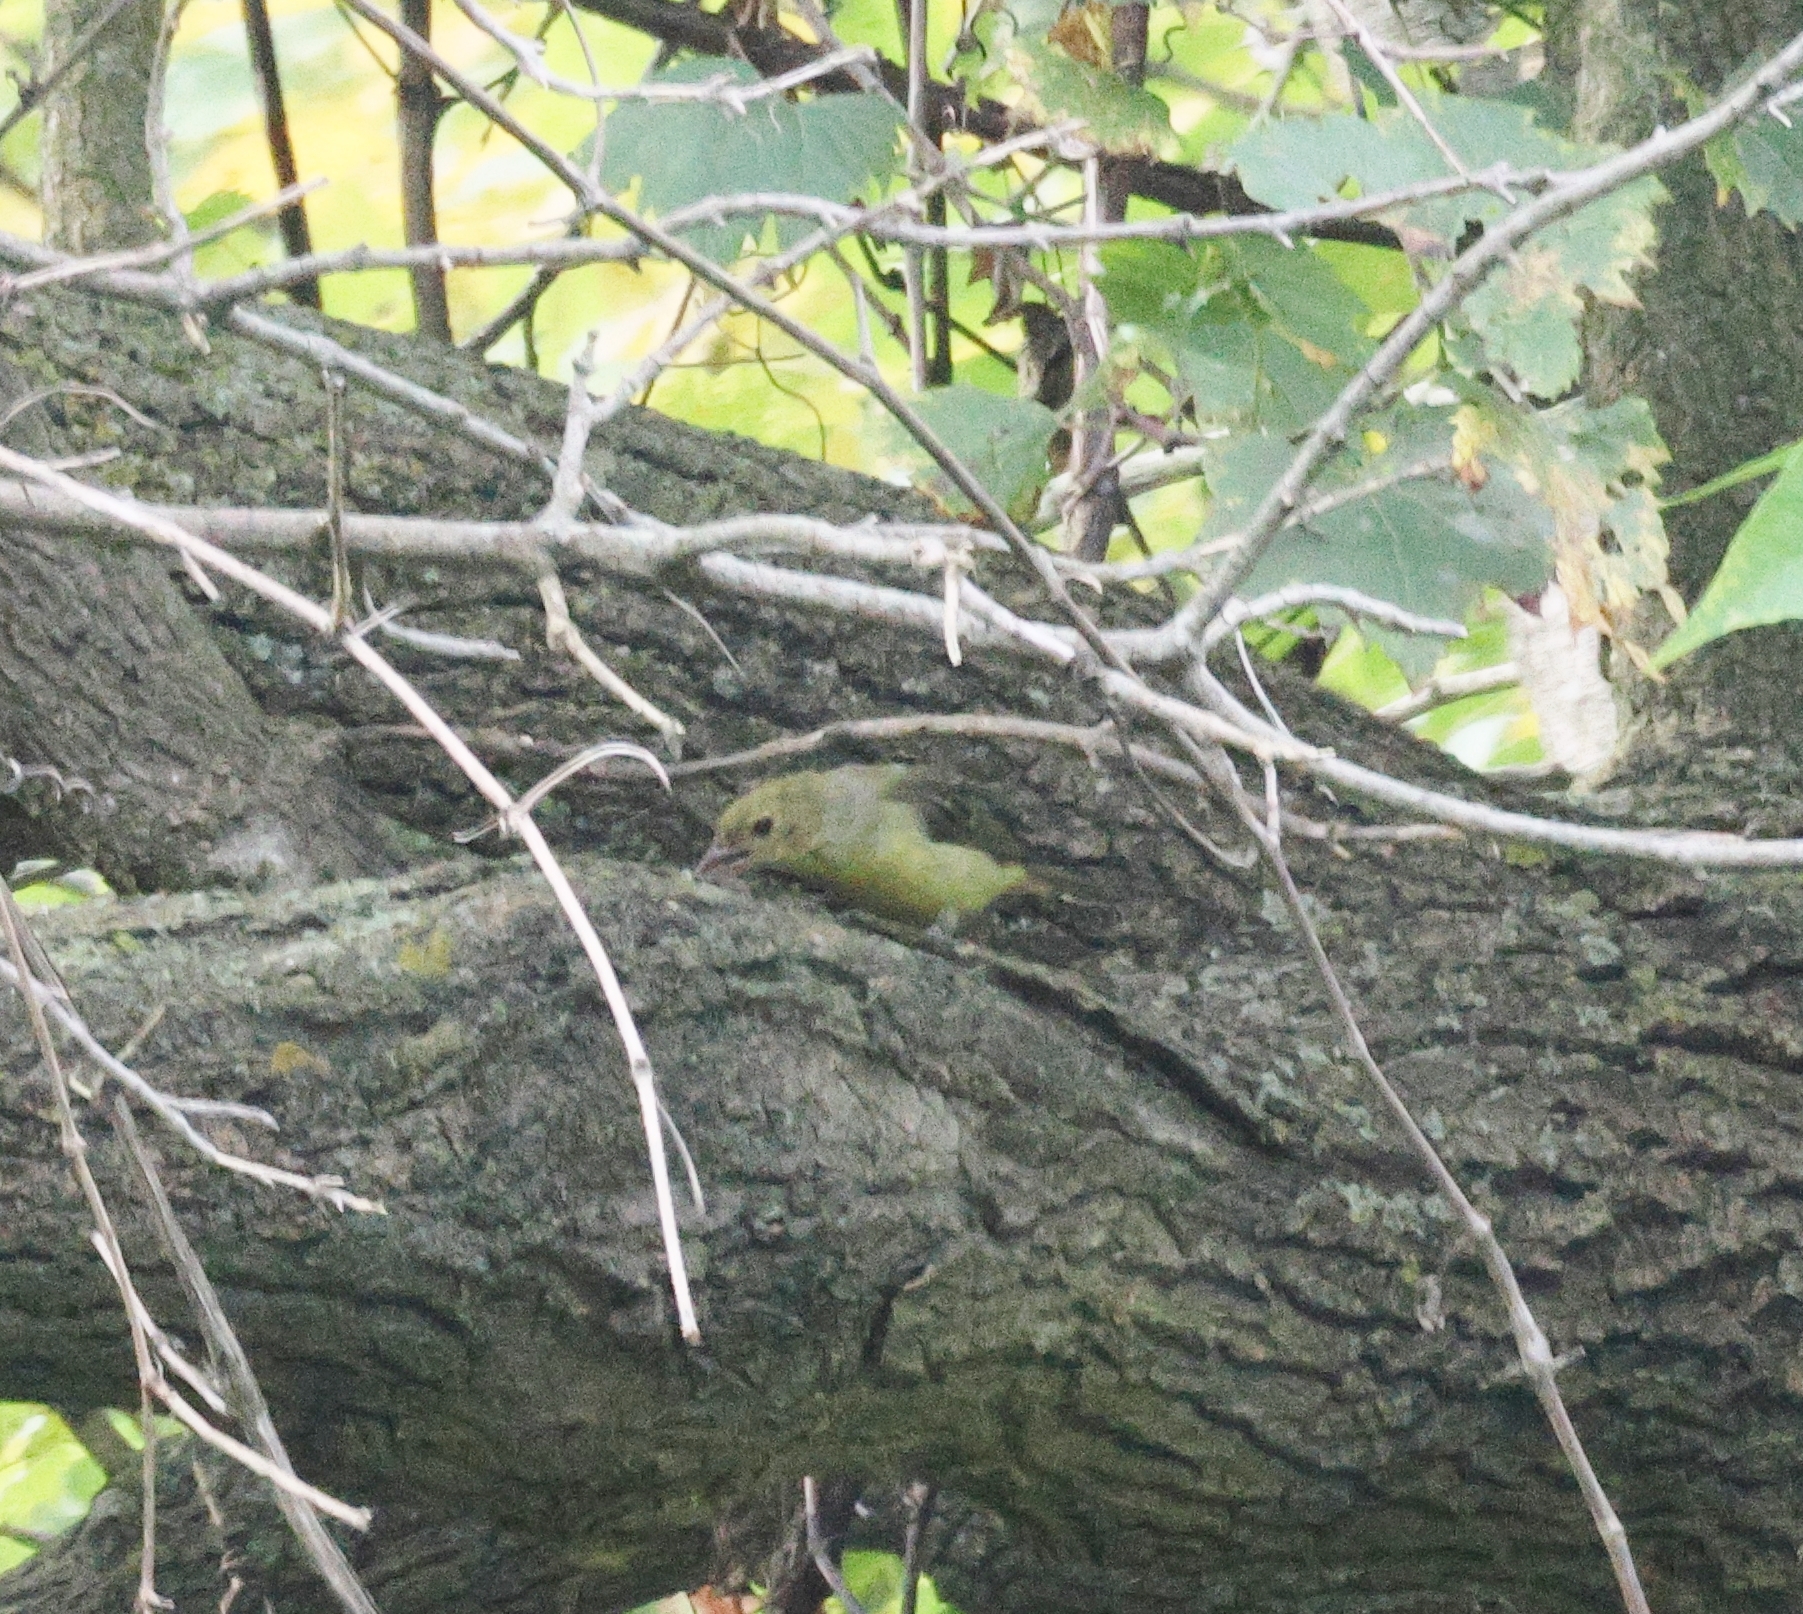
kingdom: Animalia
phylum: Chordata
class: Aves
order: Passeriformes
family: Cardinalidae
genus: Piranga
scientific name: Piranga olivacea
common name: Scarlet tanager
